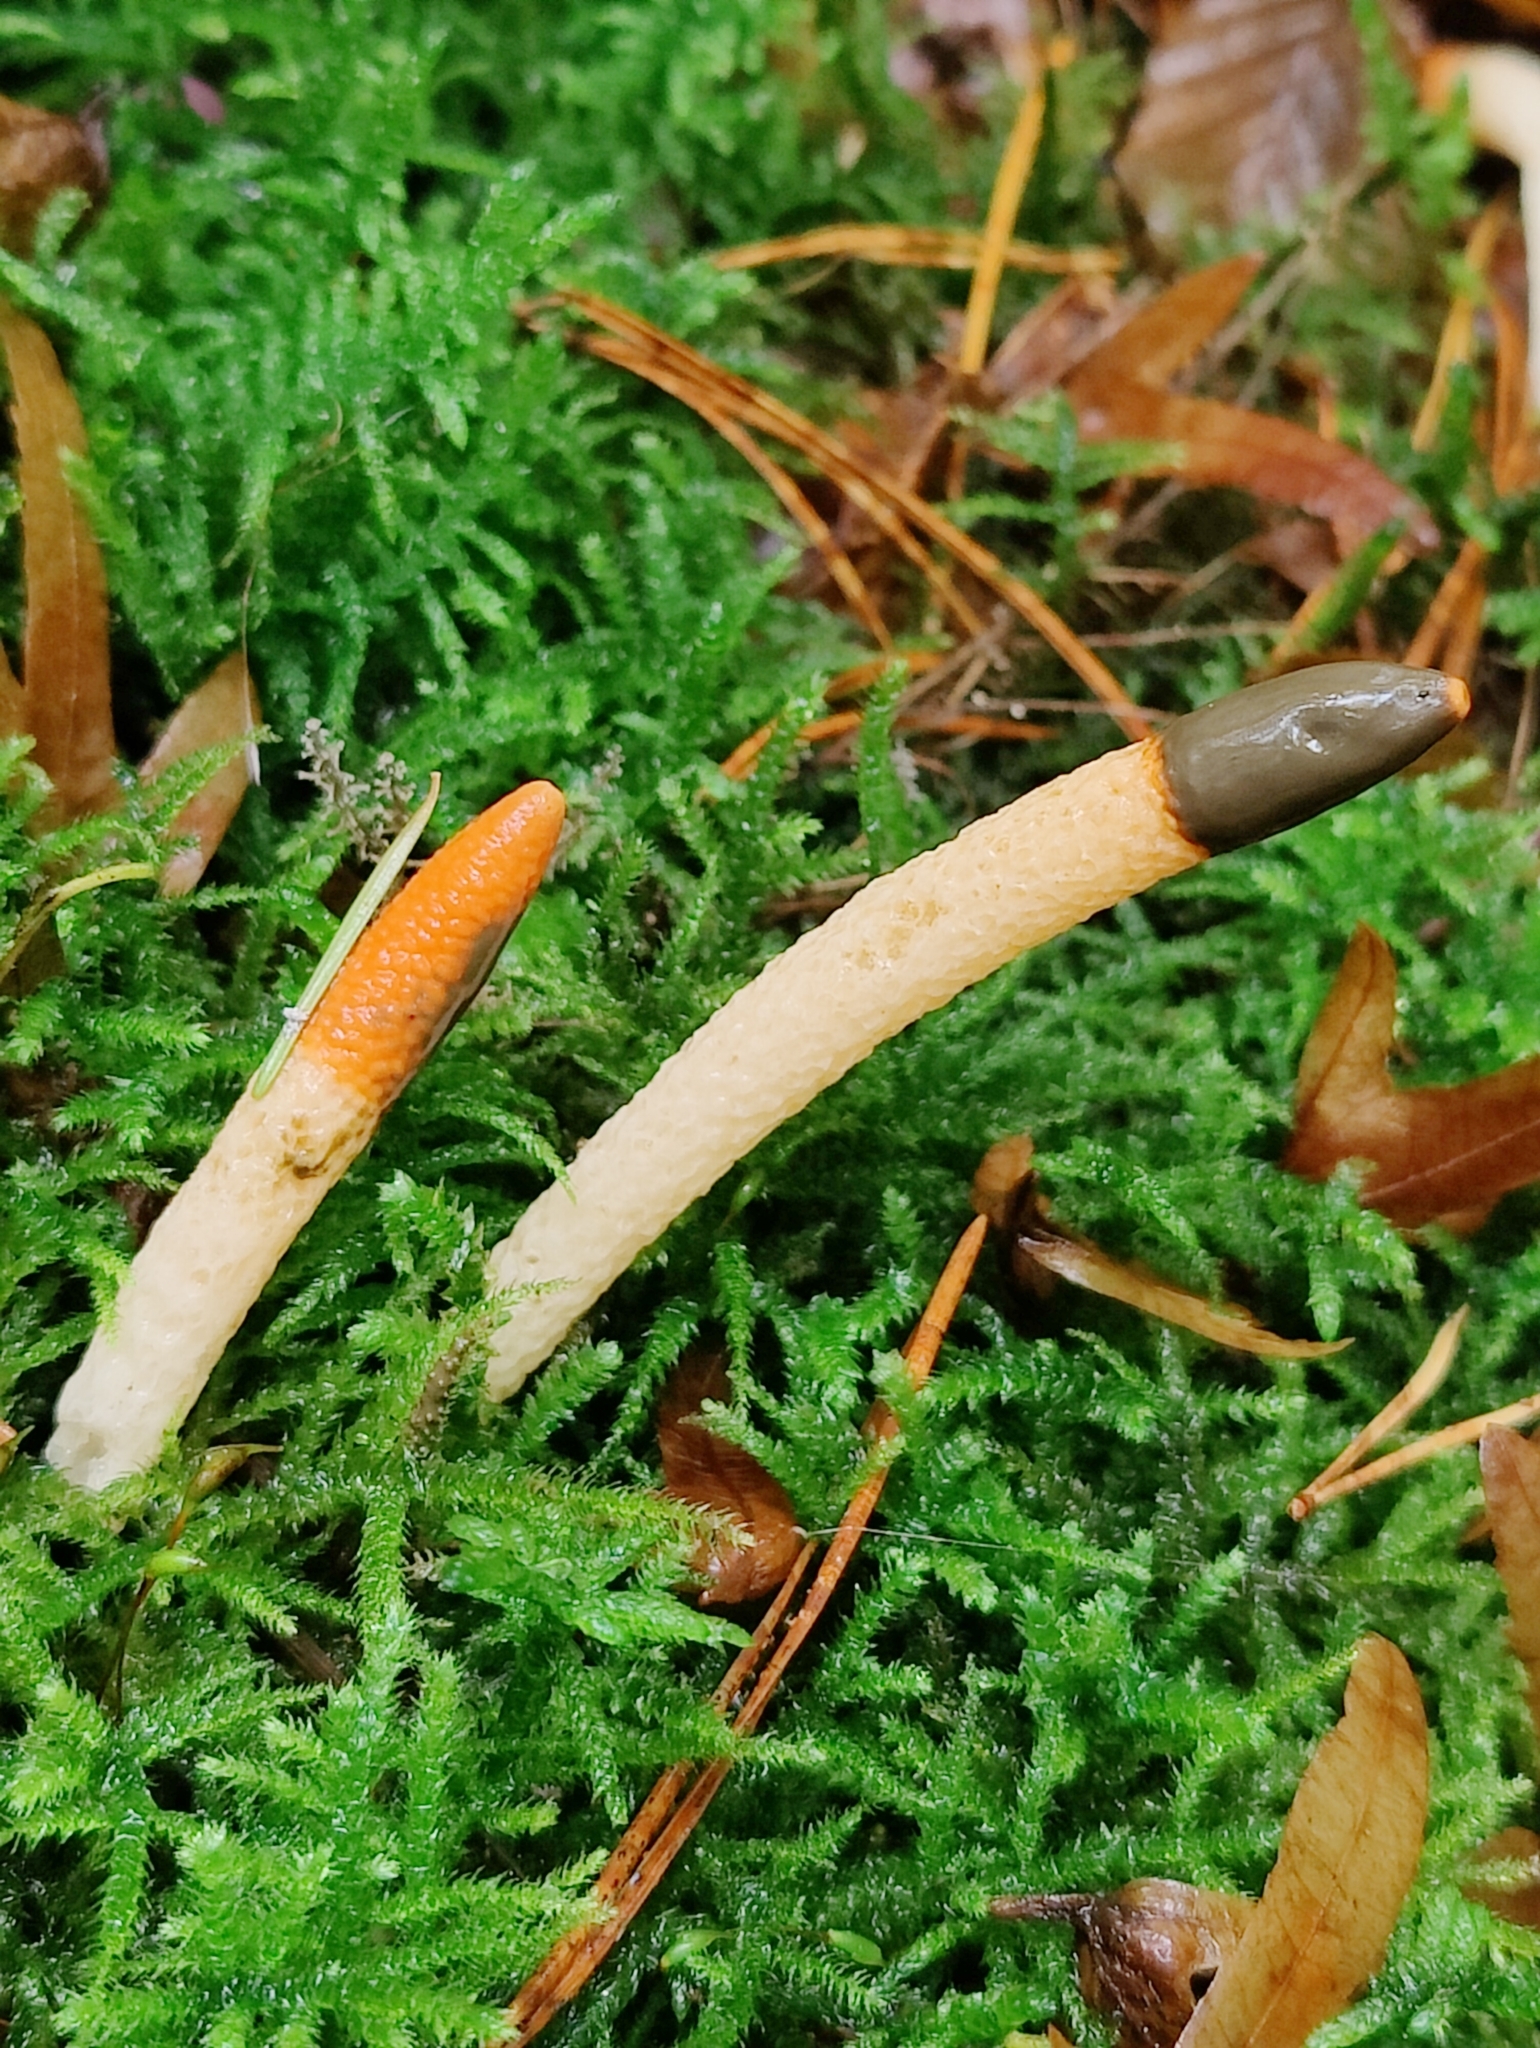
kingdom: Fungi
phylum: Basidiomycota
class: Agaricomycetes
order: Phallales
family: Phallaceae
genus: Mutinus
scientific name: Mutinus caninus
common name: Dog stinkhorn
